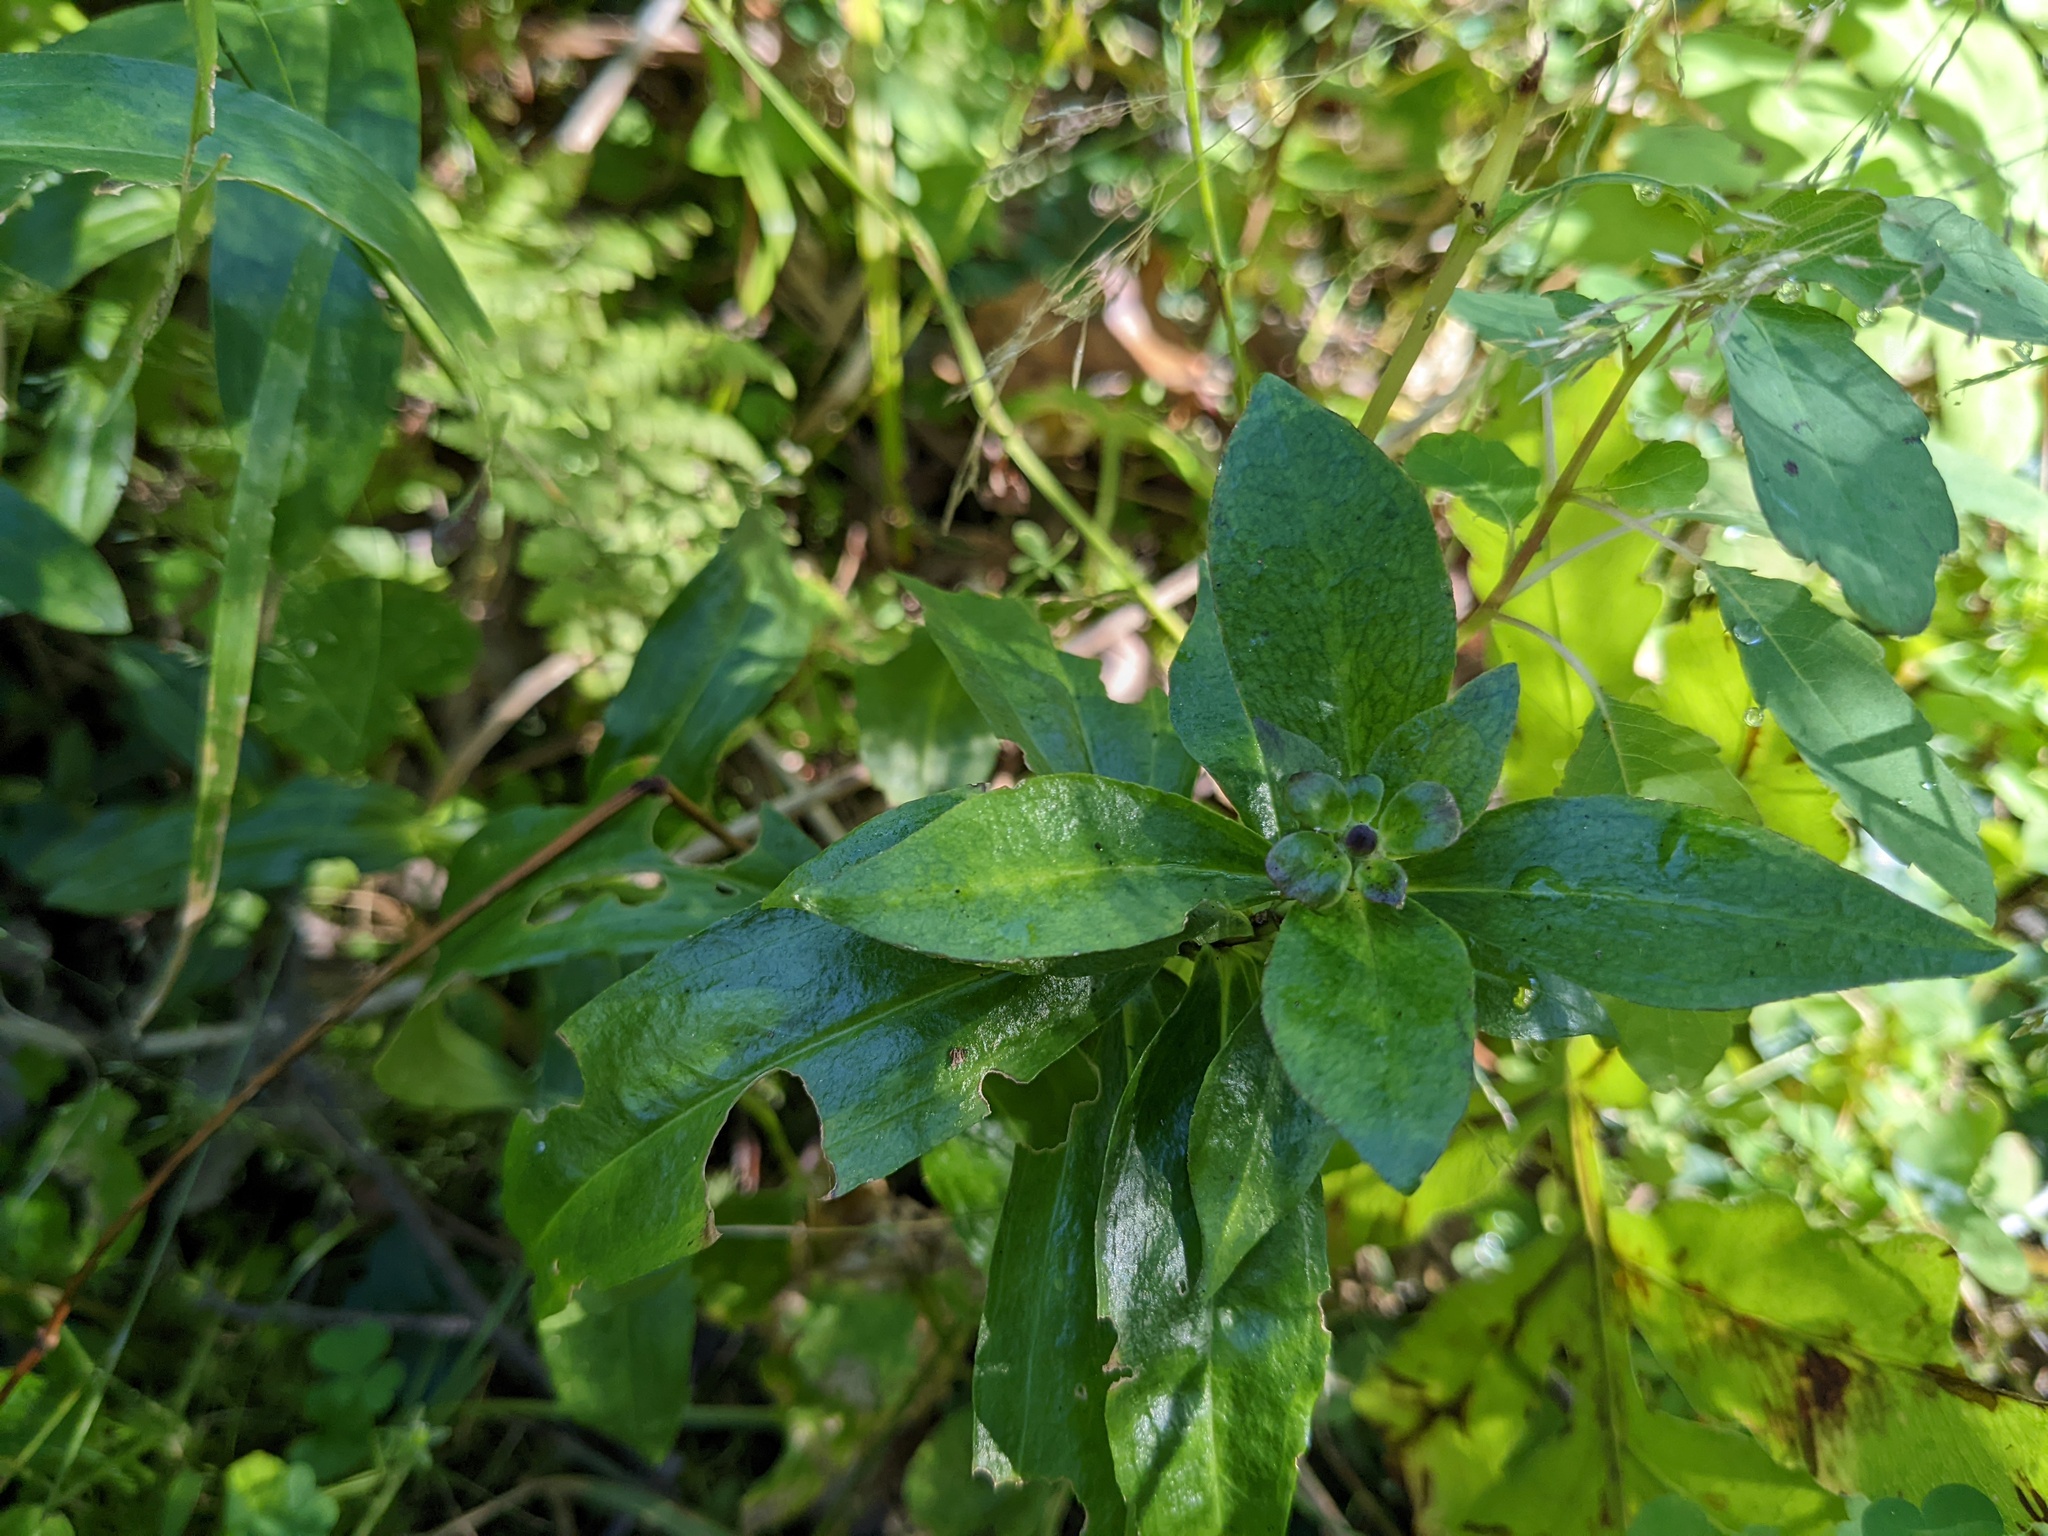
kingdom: Plantae
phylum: Tracheophyta
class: Magnoliopsida
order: Gentianales
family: Gentianaceae
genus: Gentiana
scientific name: Gentiana clausa
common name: Blind gentian
